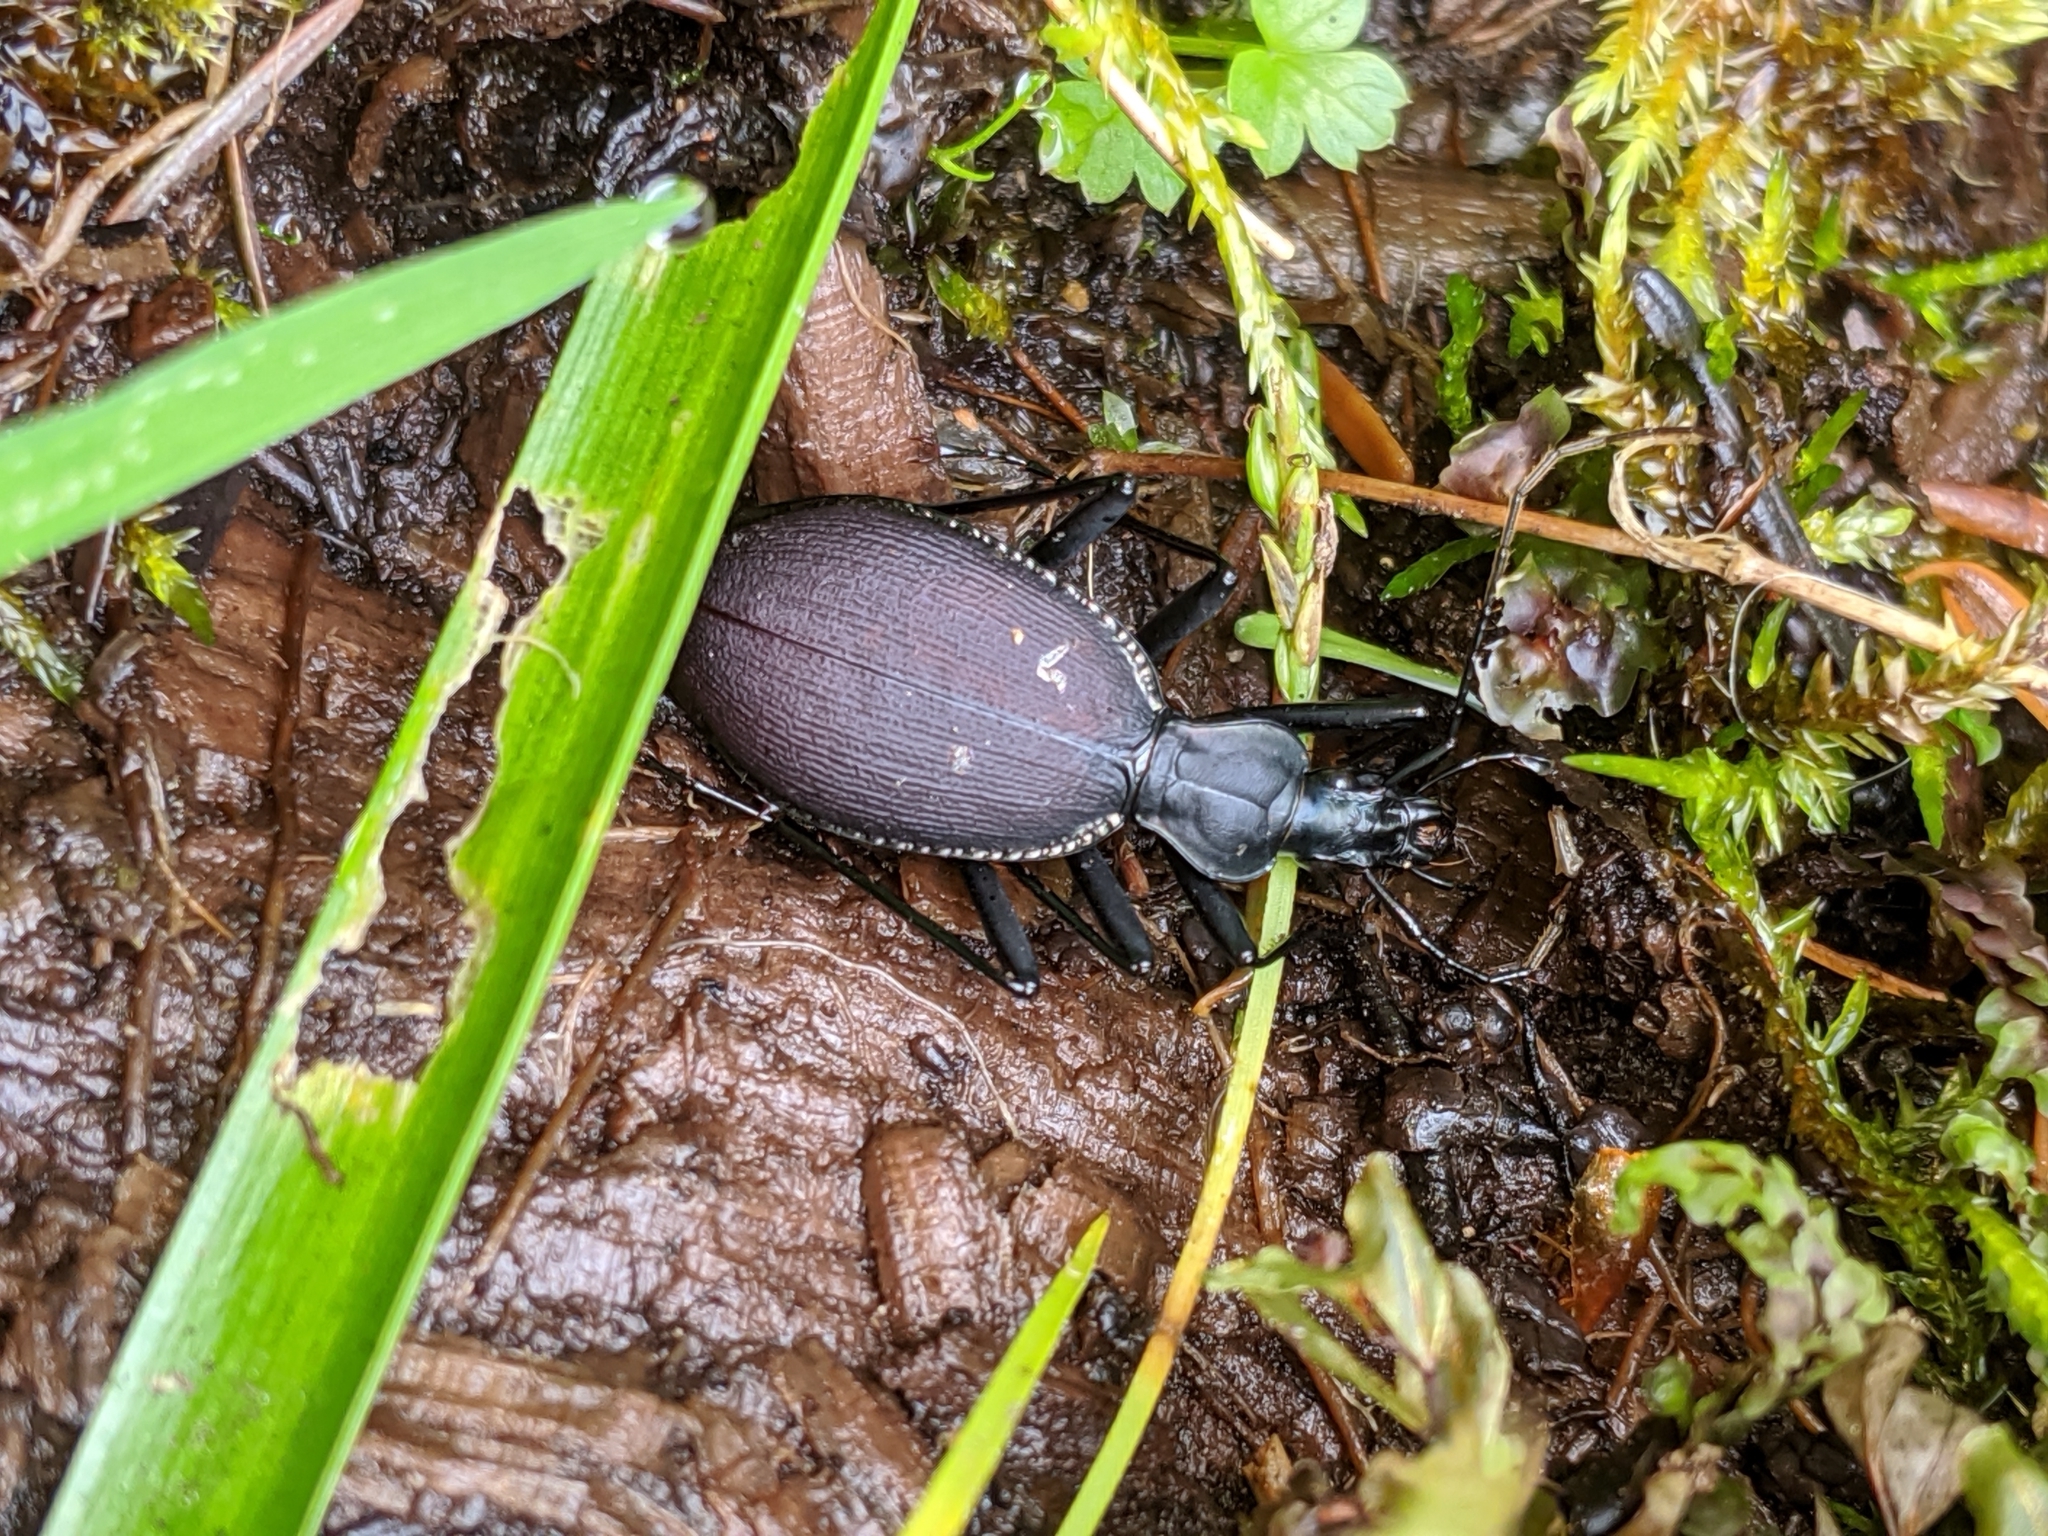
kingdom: Animalia
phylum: Arthropoda
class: Insecta
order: Coleoptera
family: Carabidae
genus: Scaphinotus
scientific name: Scaphinotus angusticollis
